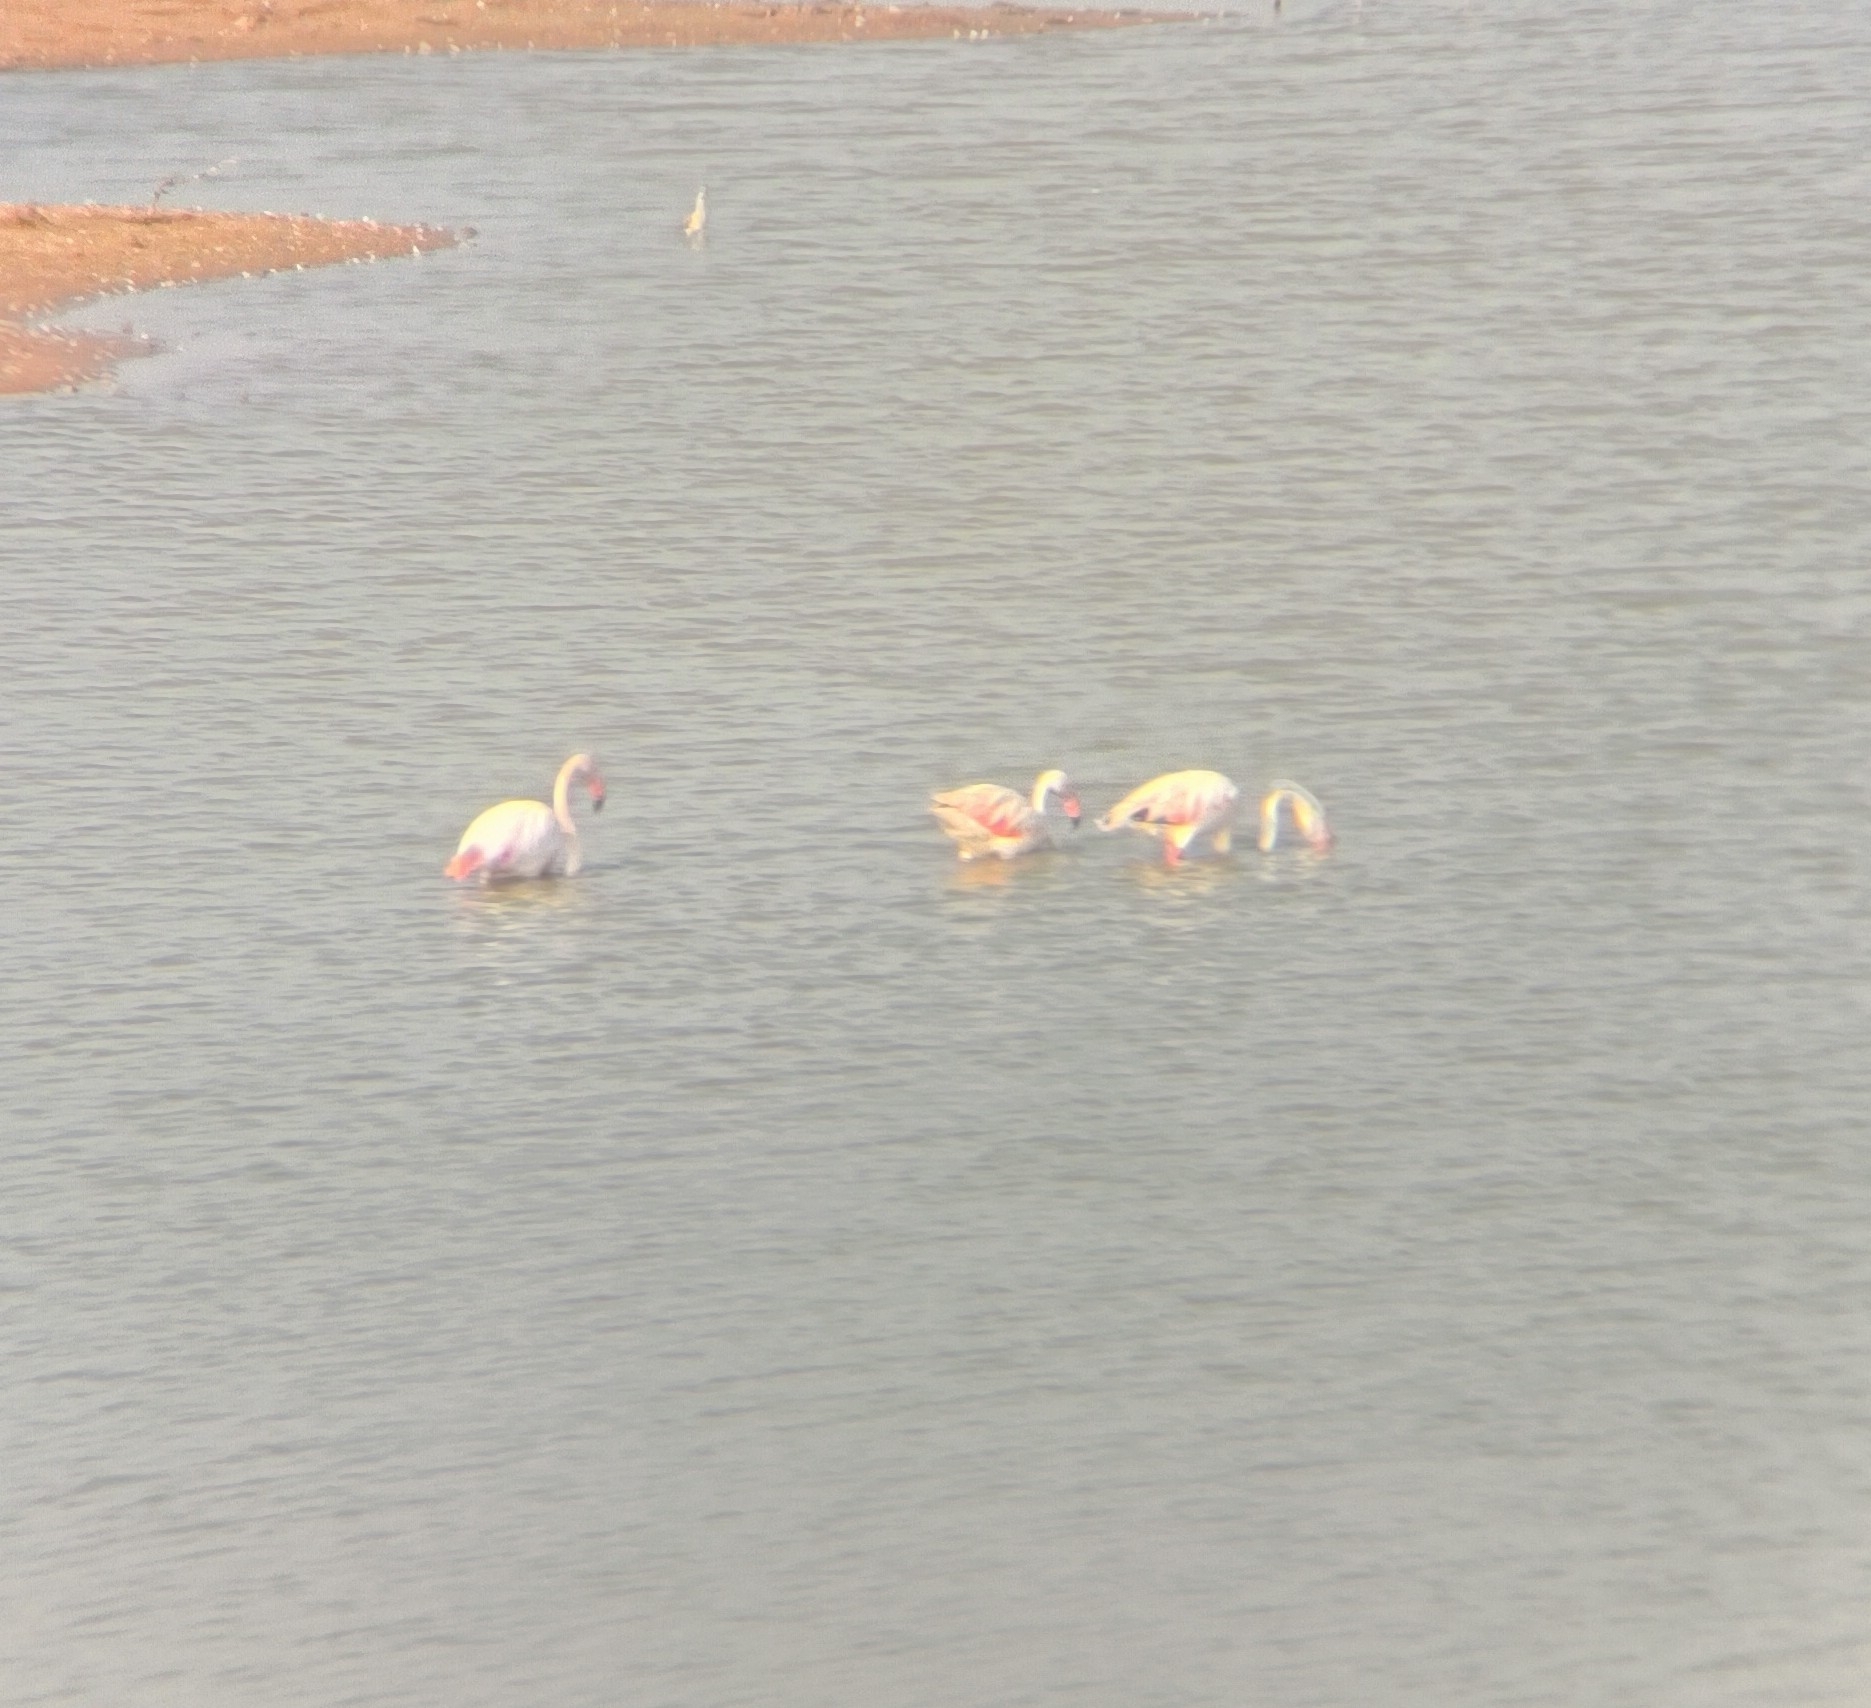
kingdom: Animalia
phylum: Chordata
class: Aves
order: Phoenicopteriformes
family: Phoenicopteridae
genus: Phoenicopterus
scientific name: Phoenicopterus roseus
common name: Greater flamingo
